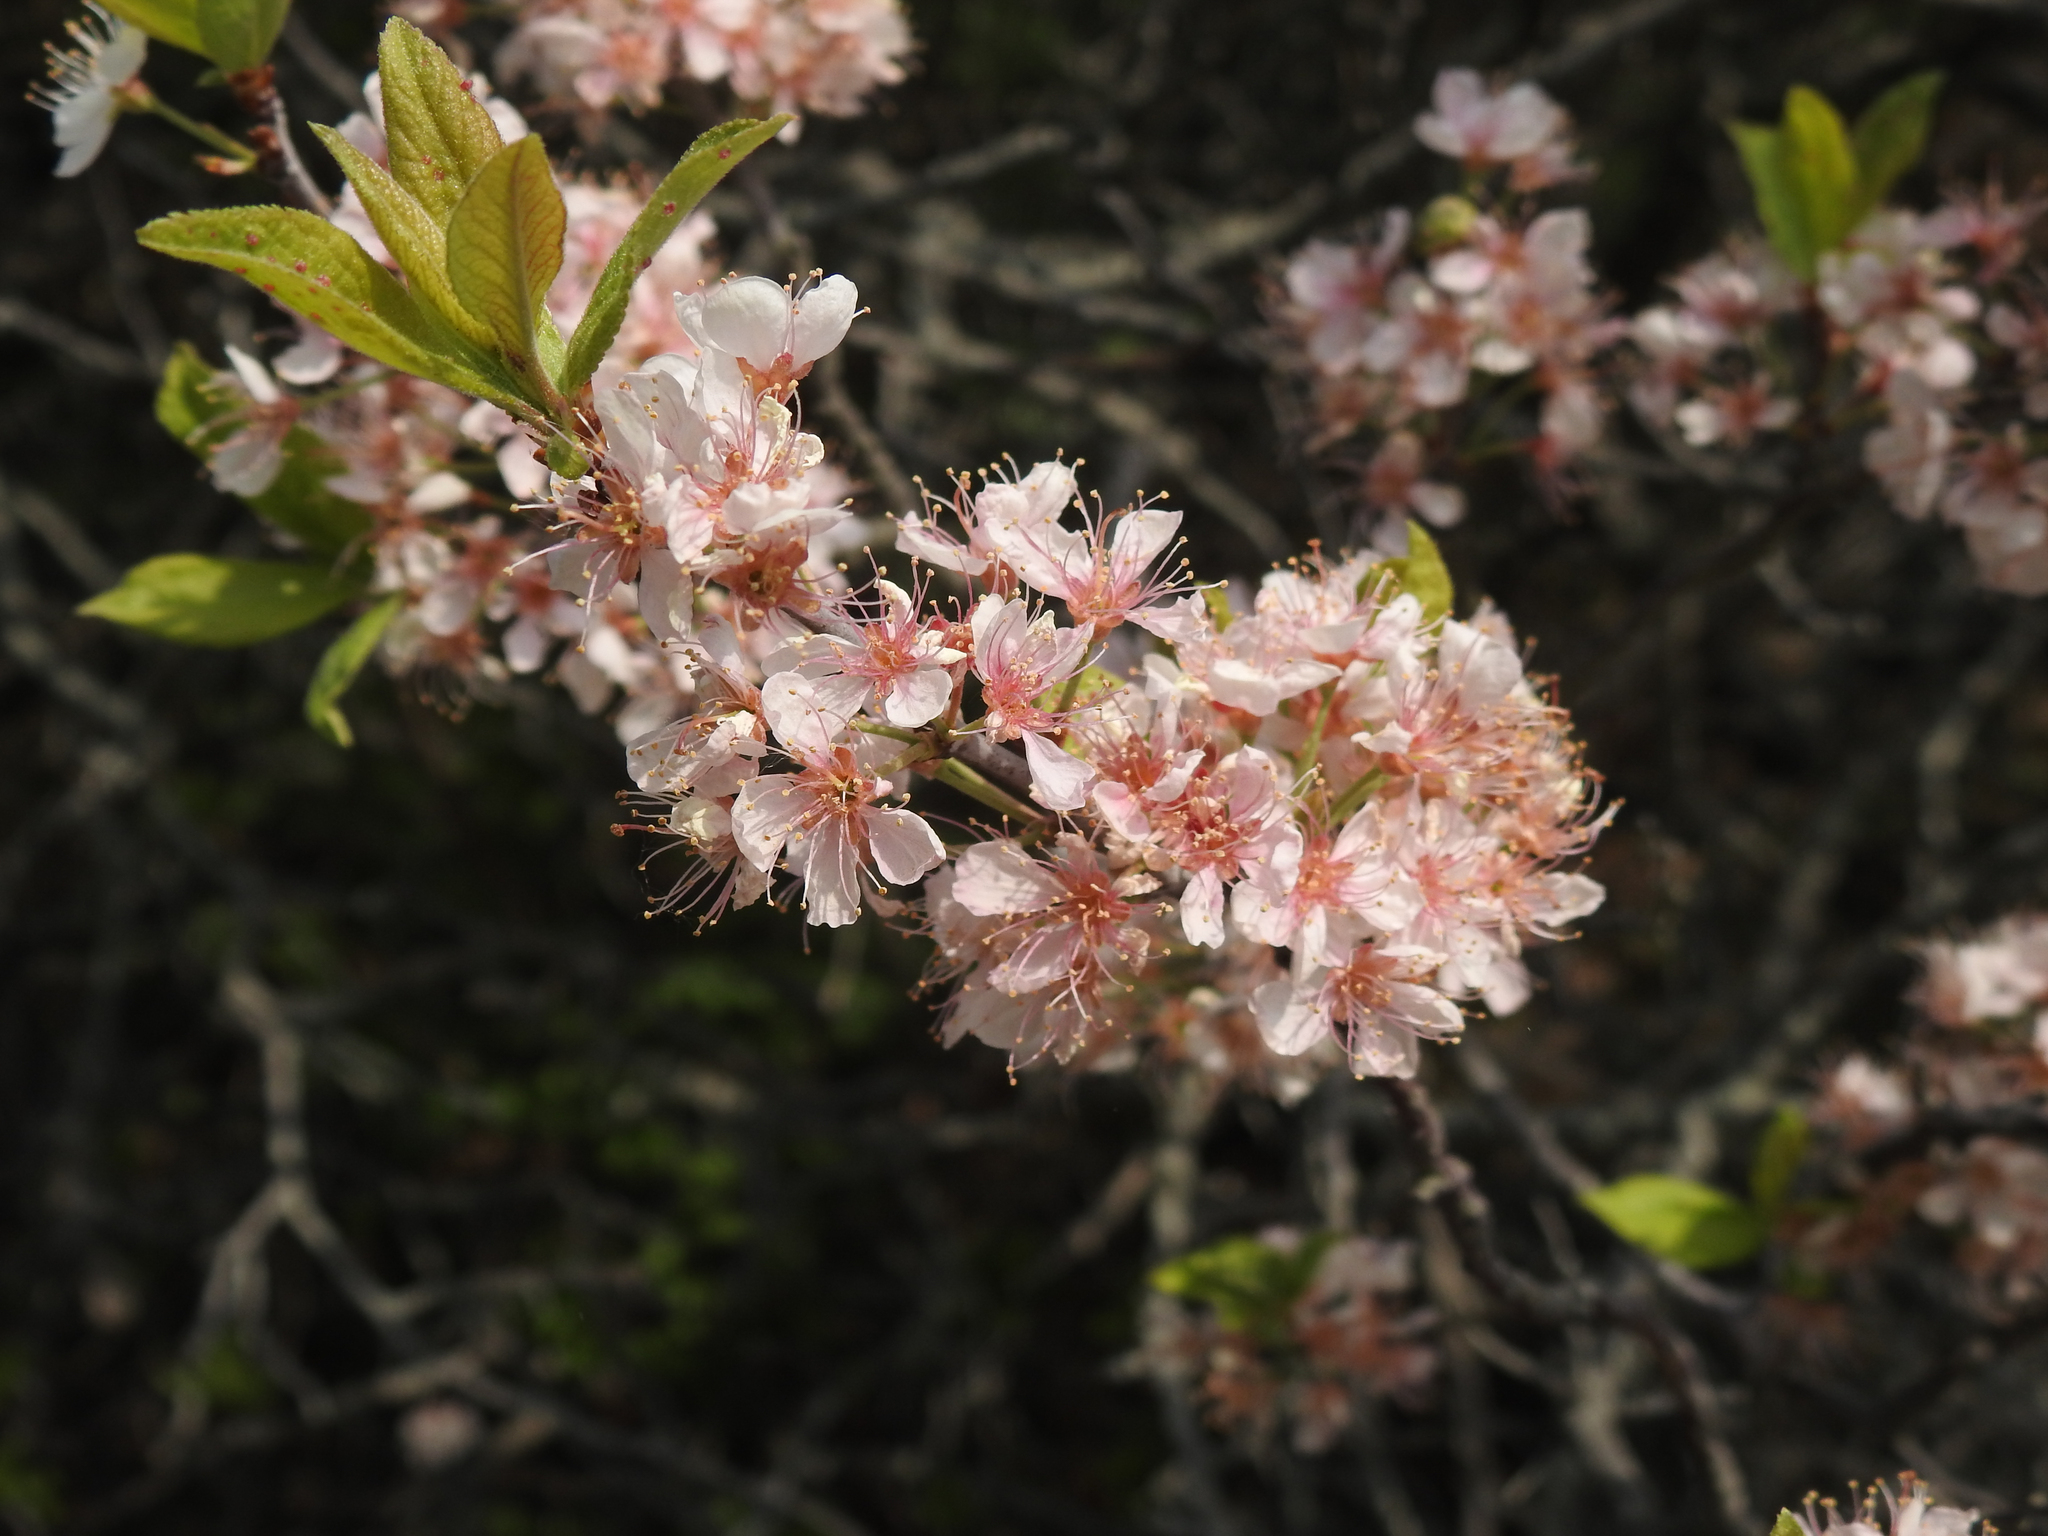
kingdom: Plantae
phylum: Tracheophyta
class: Magnoliopsida
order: Rosales
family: Rosaceae
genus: Prunus
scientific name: Prunus maritima
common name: Beach plum
